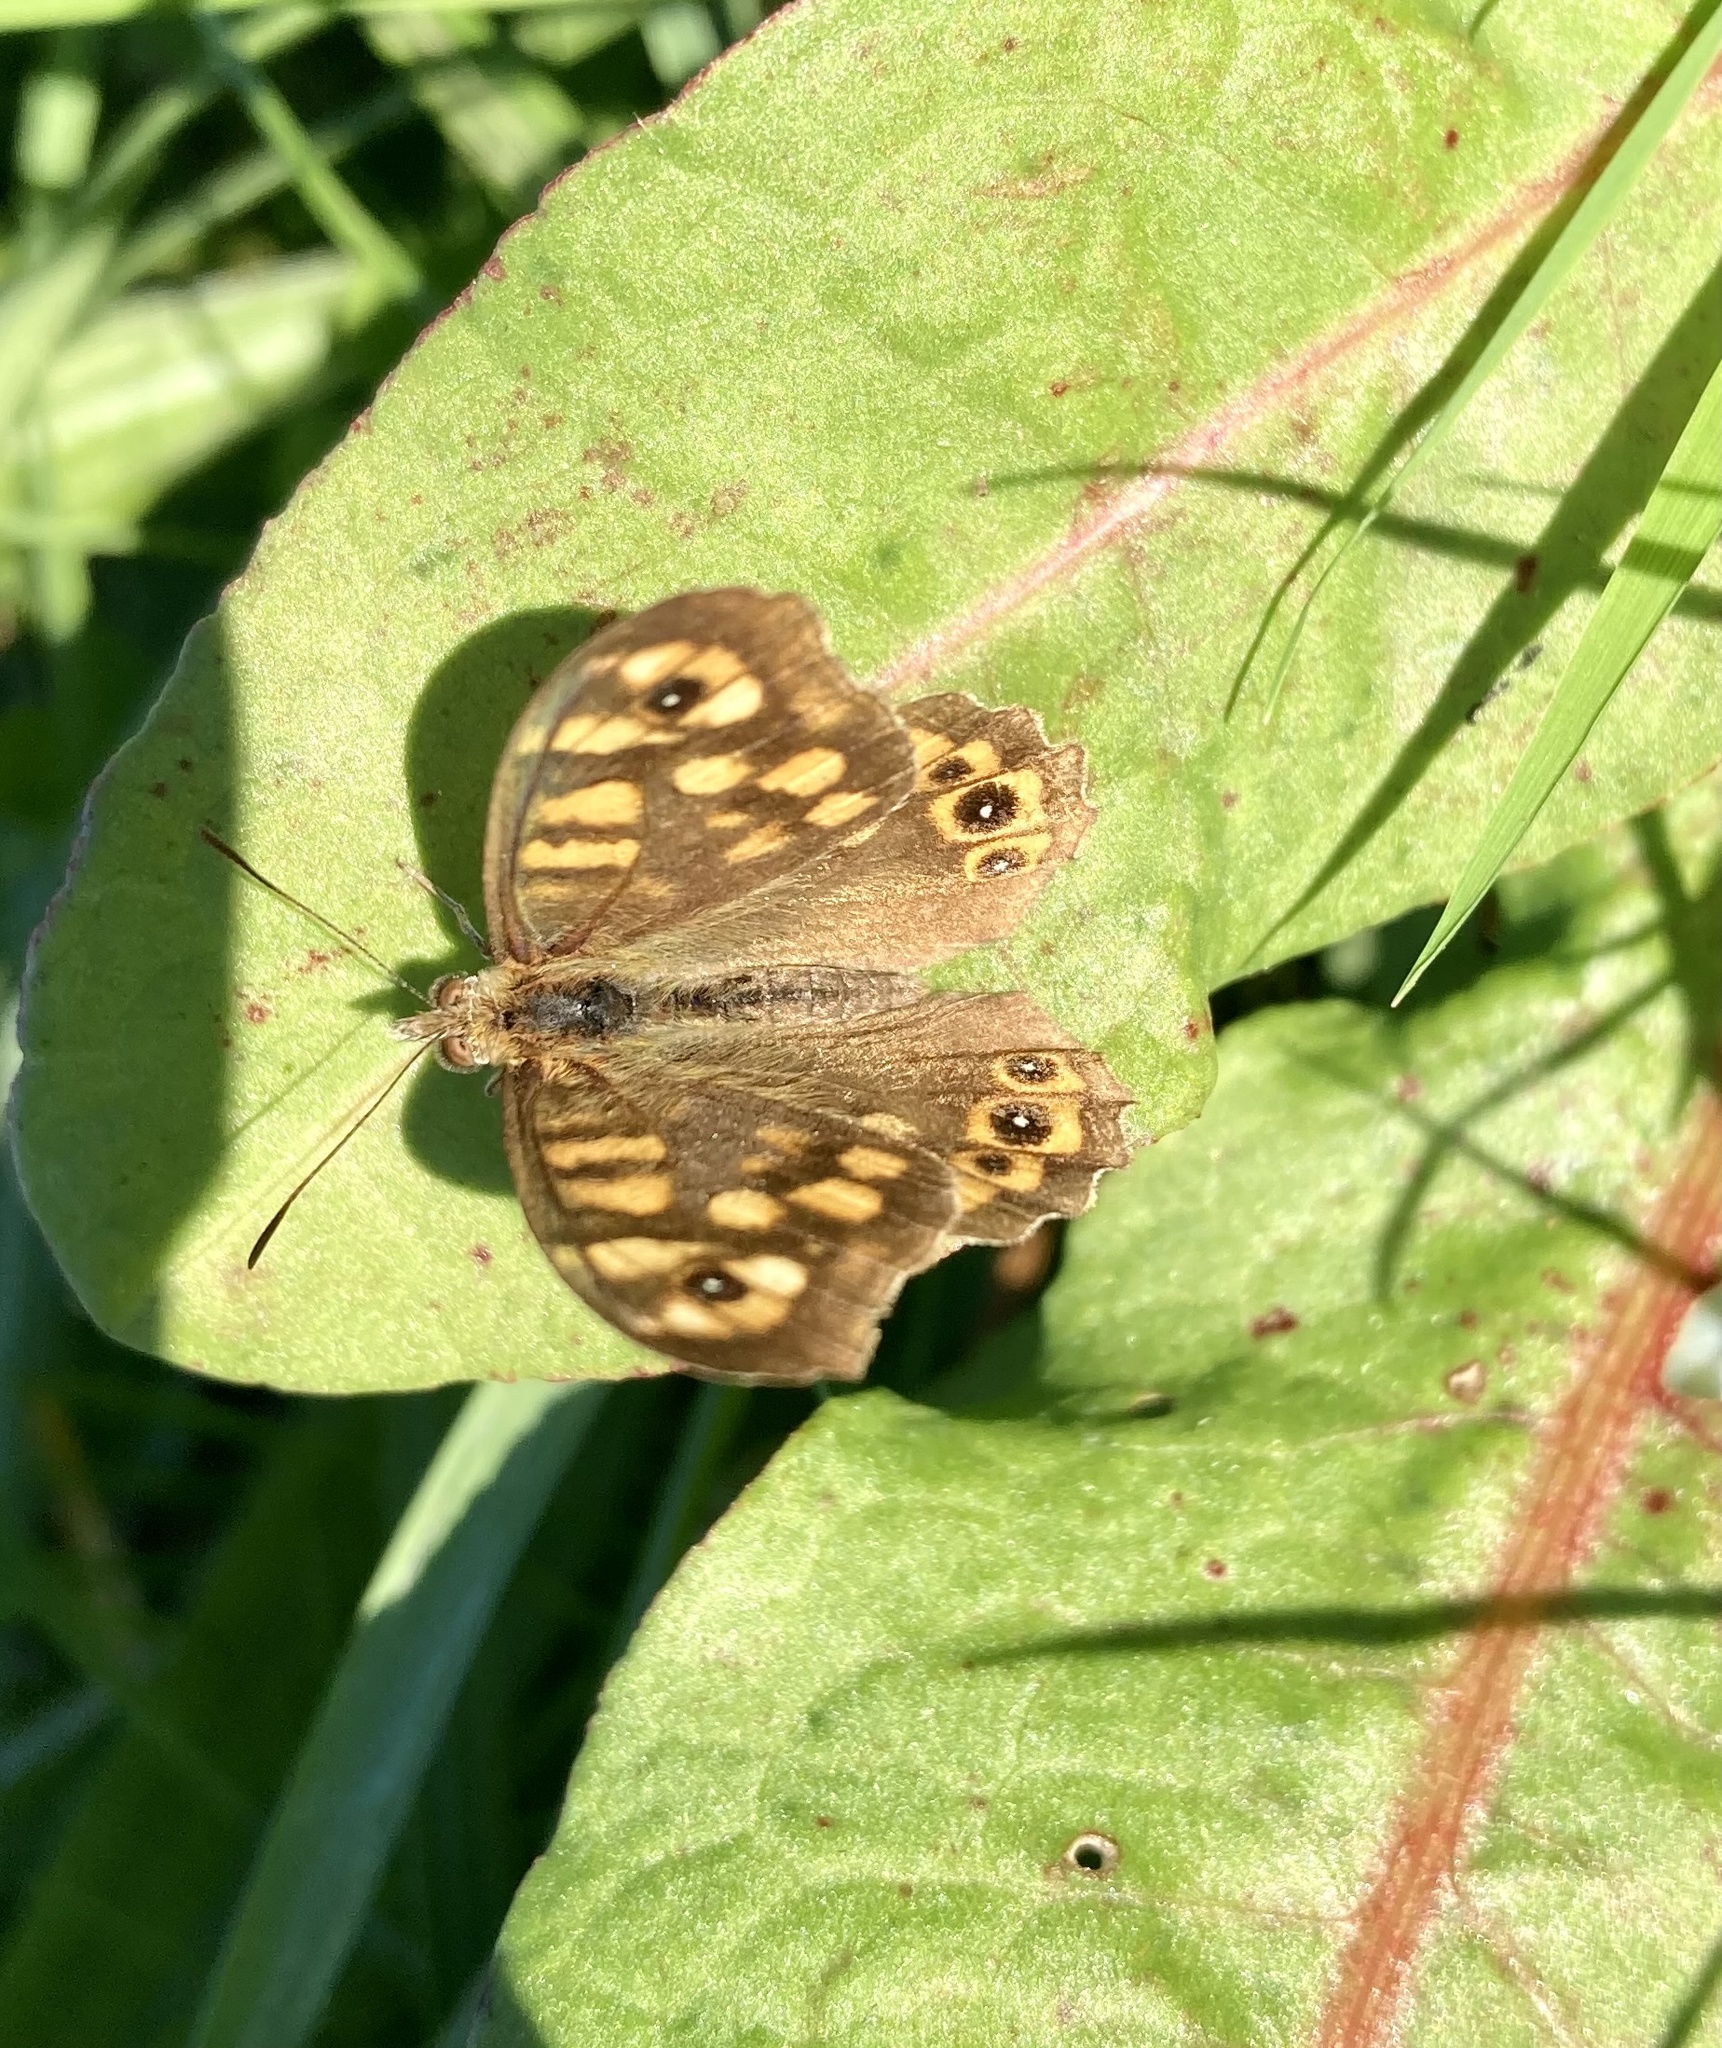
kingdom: Animalia
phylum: Arthropoda
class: Insecta
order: Lepidoptera
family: Nymphalidae
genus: Pararge
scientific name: Pararge aegeria
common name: Speckled wood
